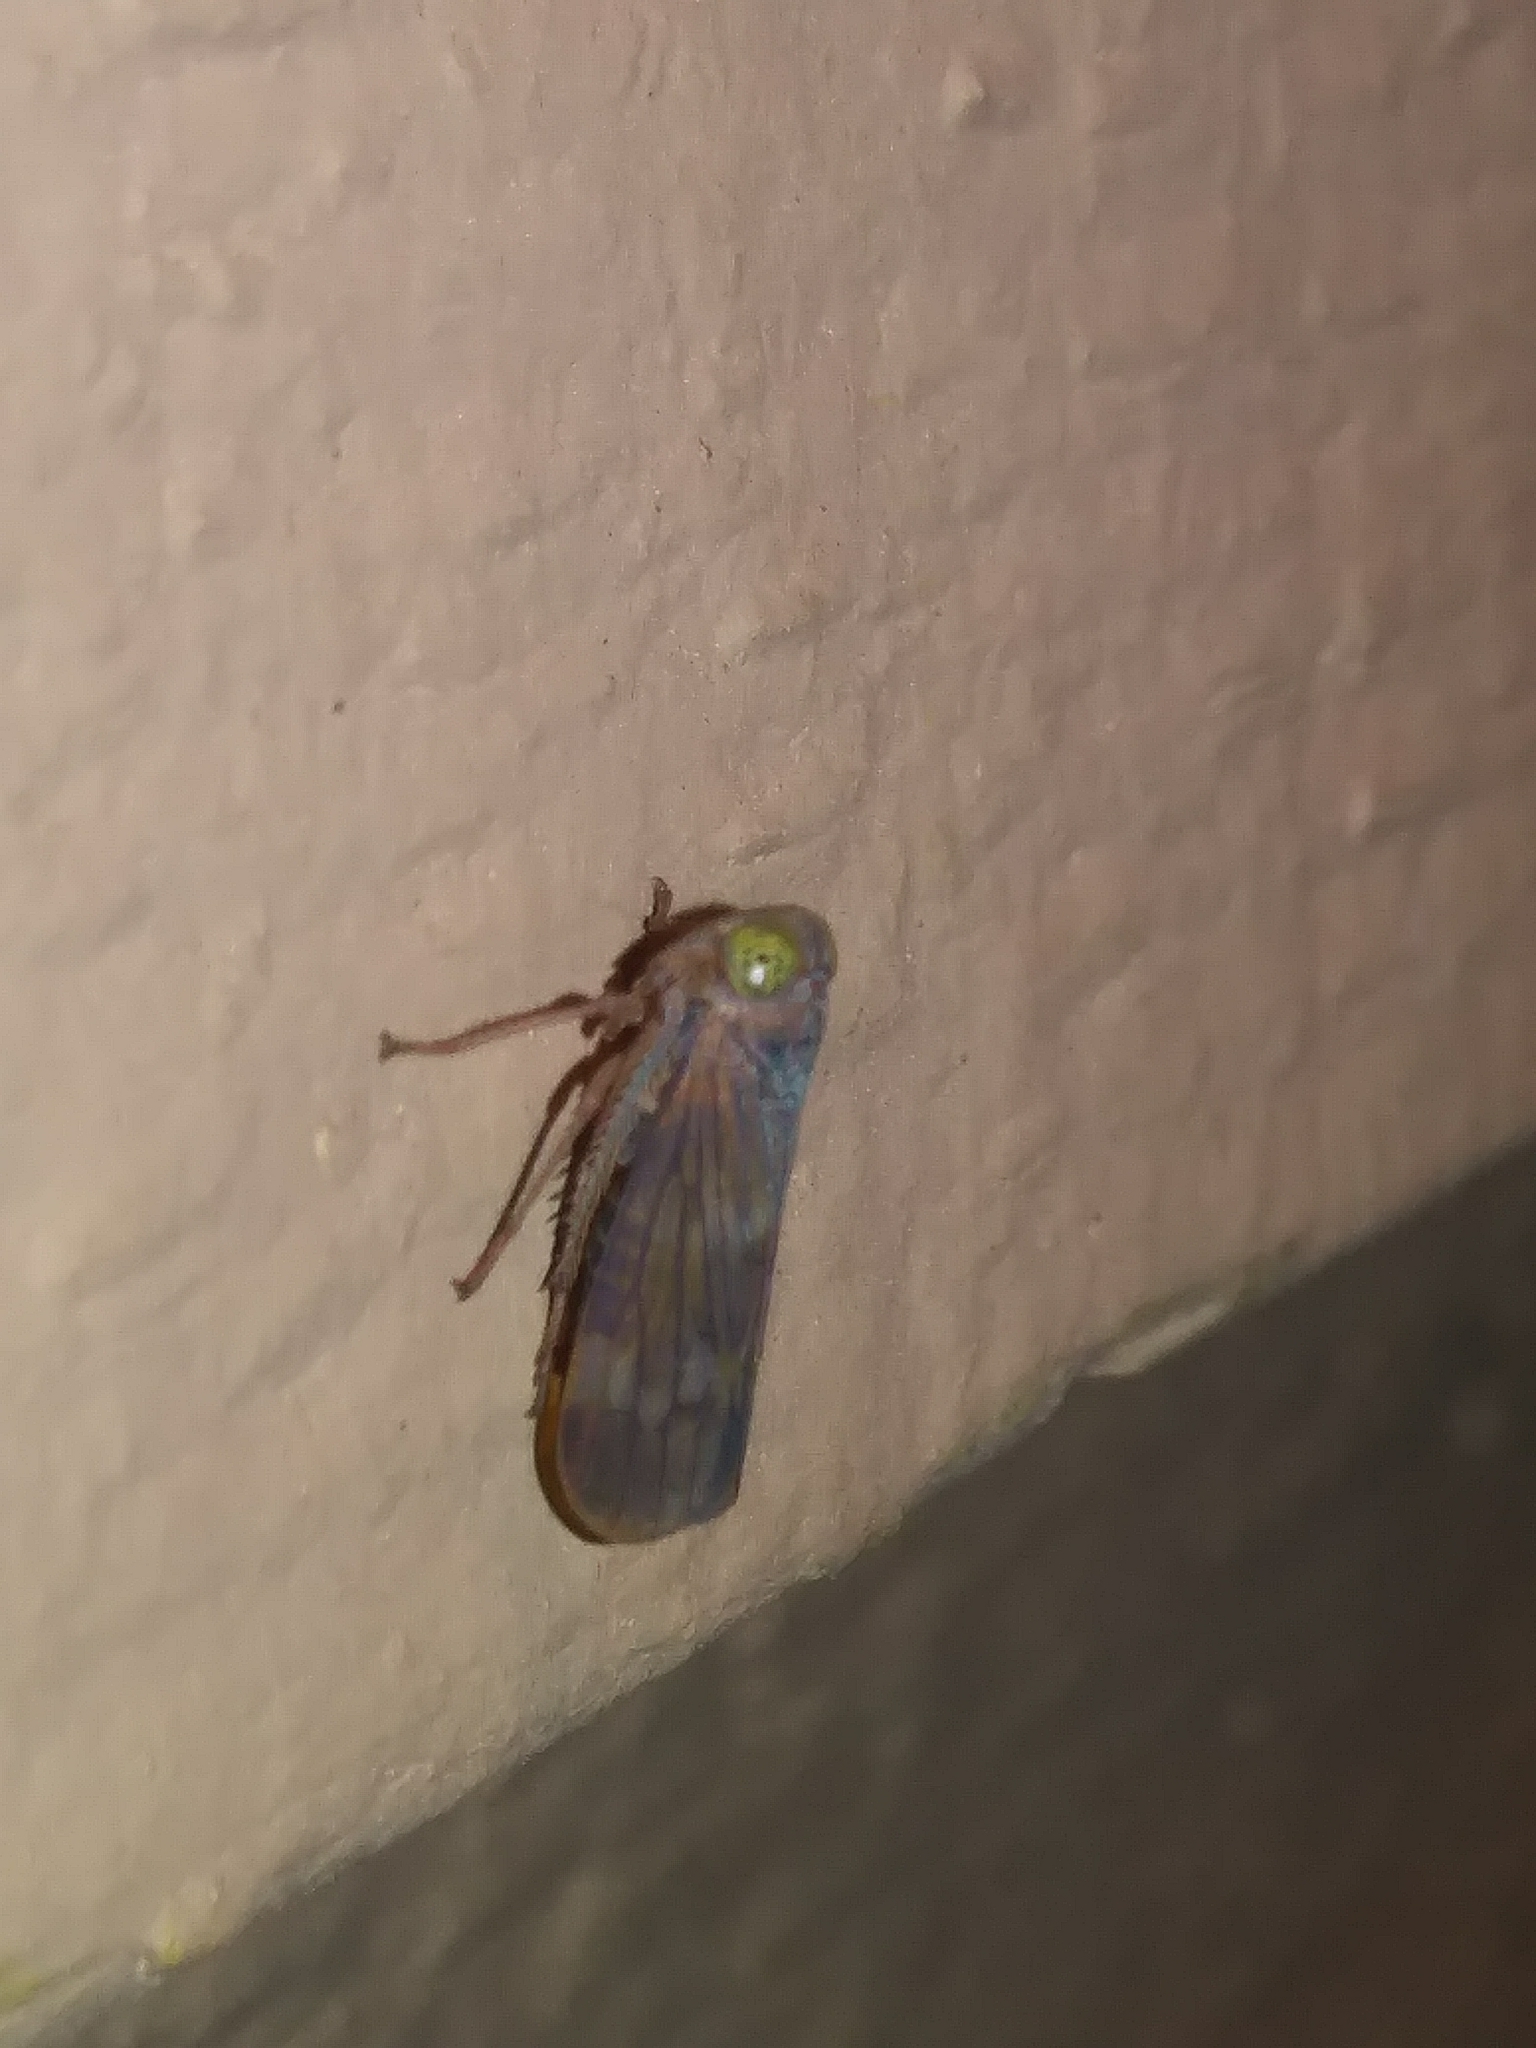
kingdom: Animalia
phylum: Arthropoda
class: Insecta
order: Hemiptera
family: Cicadellidae
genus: Jikradia
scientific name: Jikradia olitoria
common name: Coppery leafhopper
